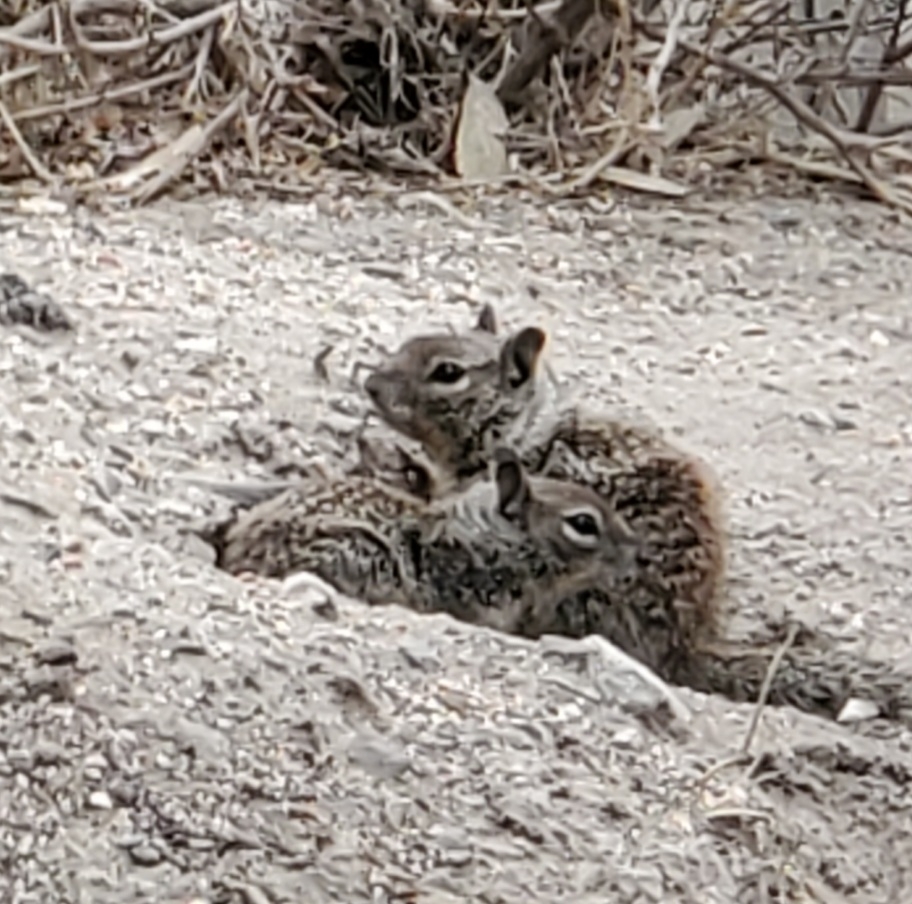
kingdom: Animalia
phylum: Chordata
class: Mammalia
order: Rodentia
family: Sciuridae
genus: Otospermophilus
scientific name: Otospermophilus beecheyi
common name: California ground squirrel
